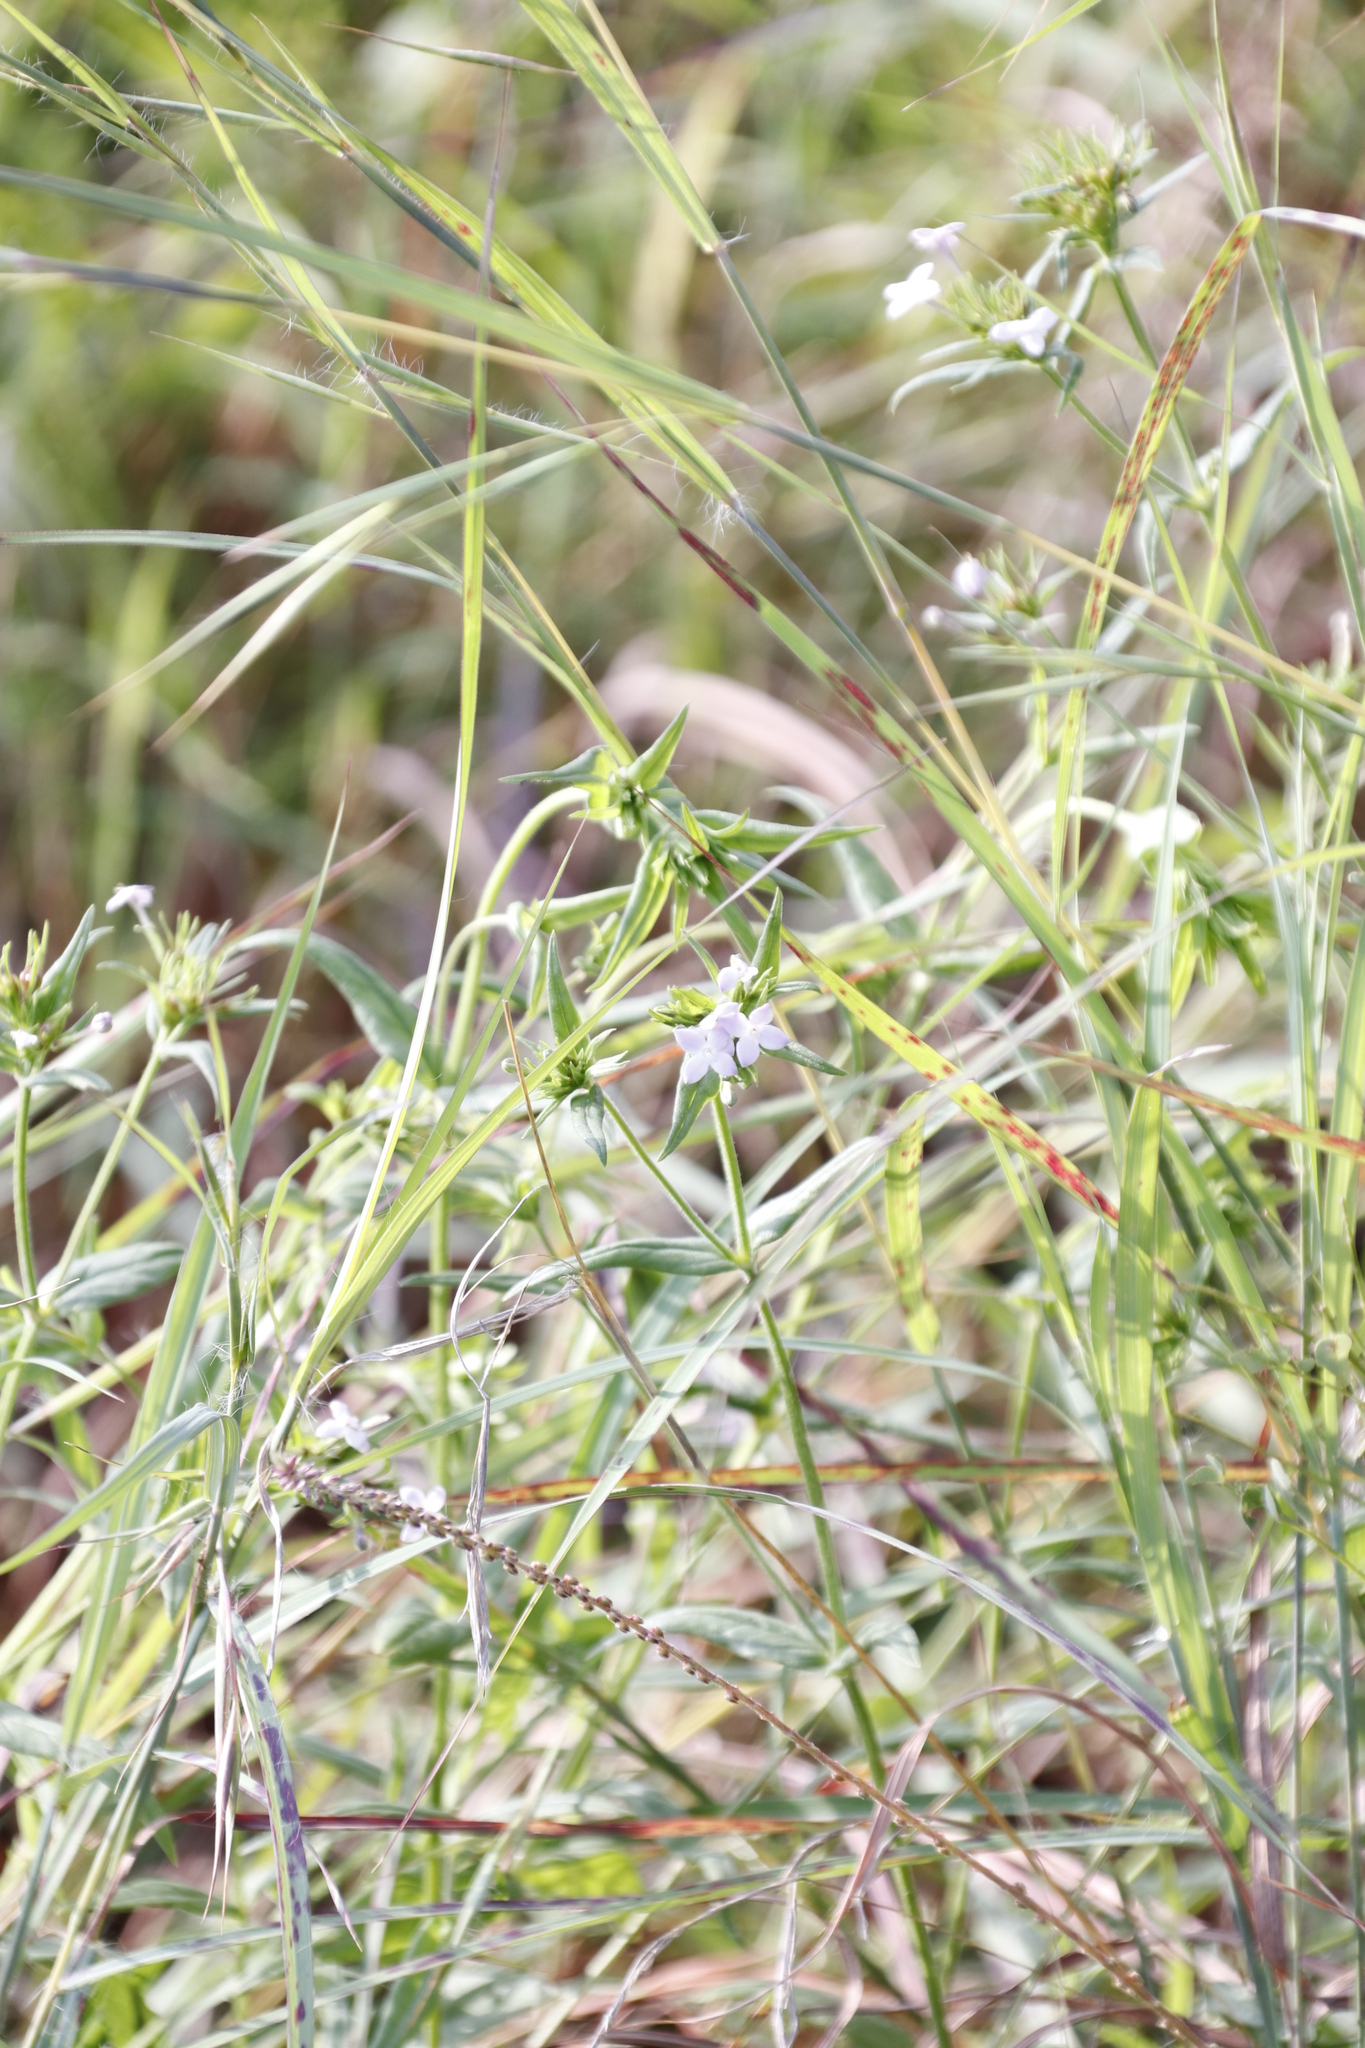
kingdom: Plantae
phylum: Tracheophyta
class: Magnoliopsida
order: Gentianales
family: Rubiaceae
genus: Conostomium
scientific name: Conostomium natalense
